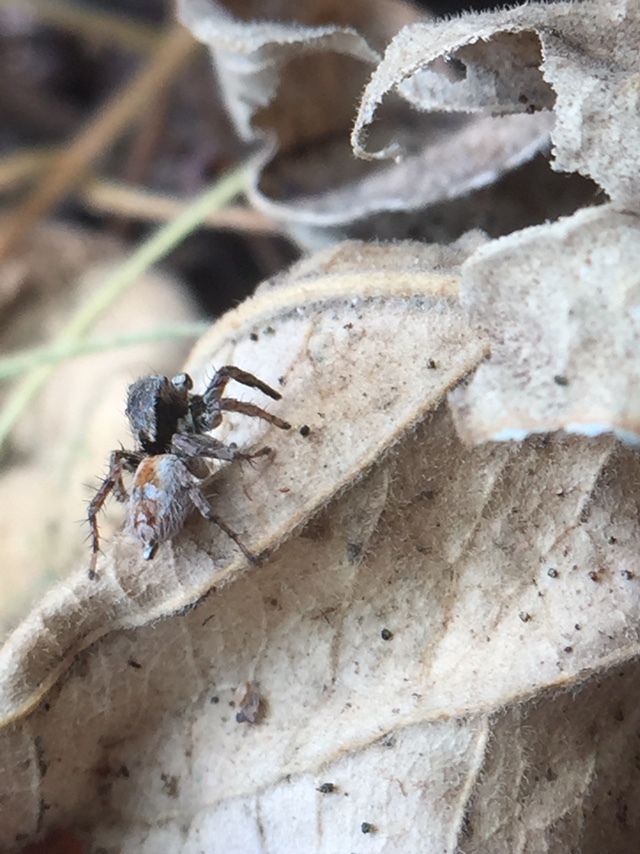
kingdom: Animalia
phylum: Arthropoda
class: Arachnida
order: Araneae
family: Salticidae
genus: Stenaelurillus
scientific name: Stenaelurillus metallicus
